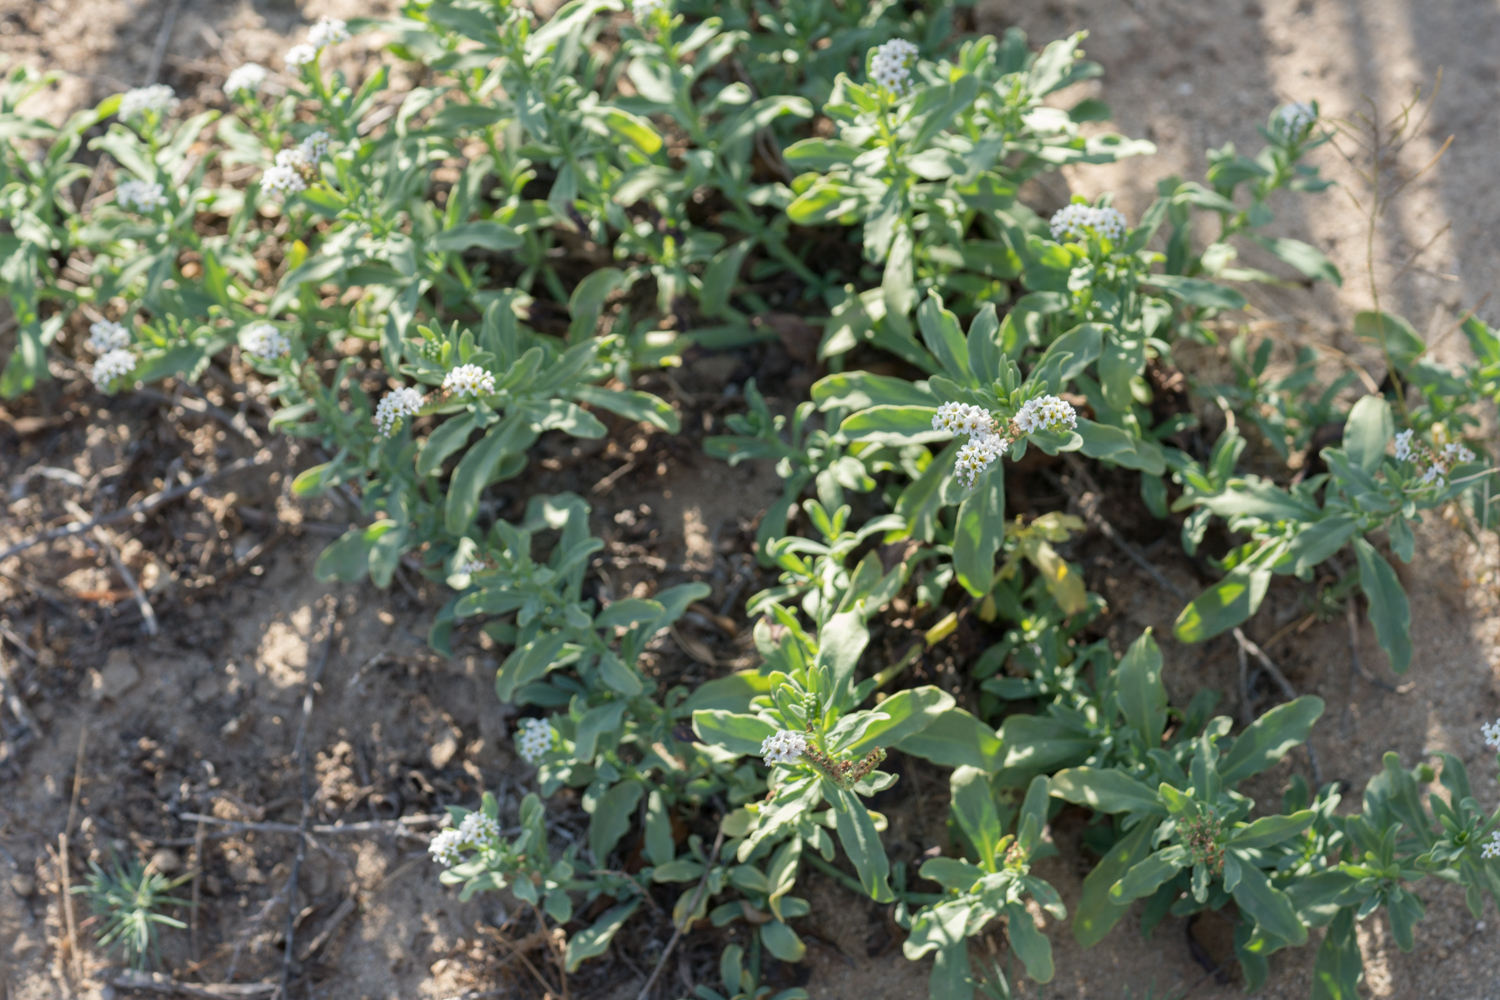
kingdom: Plantae
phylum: Tracheophyta
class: Magnoliopsida
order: Boraginales
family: Heliotropiaceae
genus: Heliotropium
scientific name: Heliotropium curassavicum
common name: Seaside heliotrope
